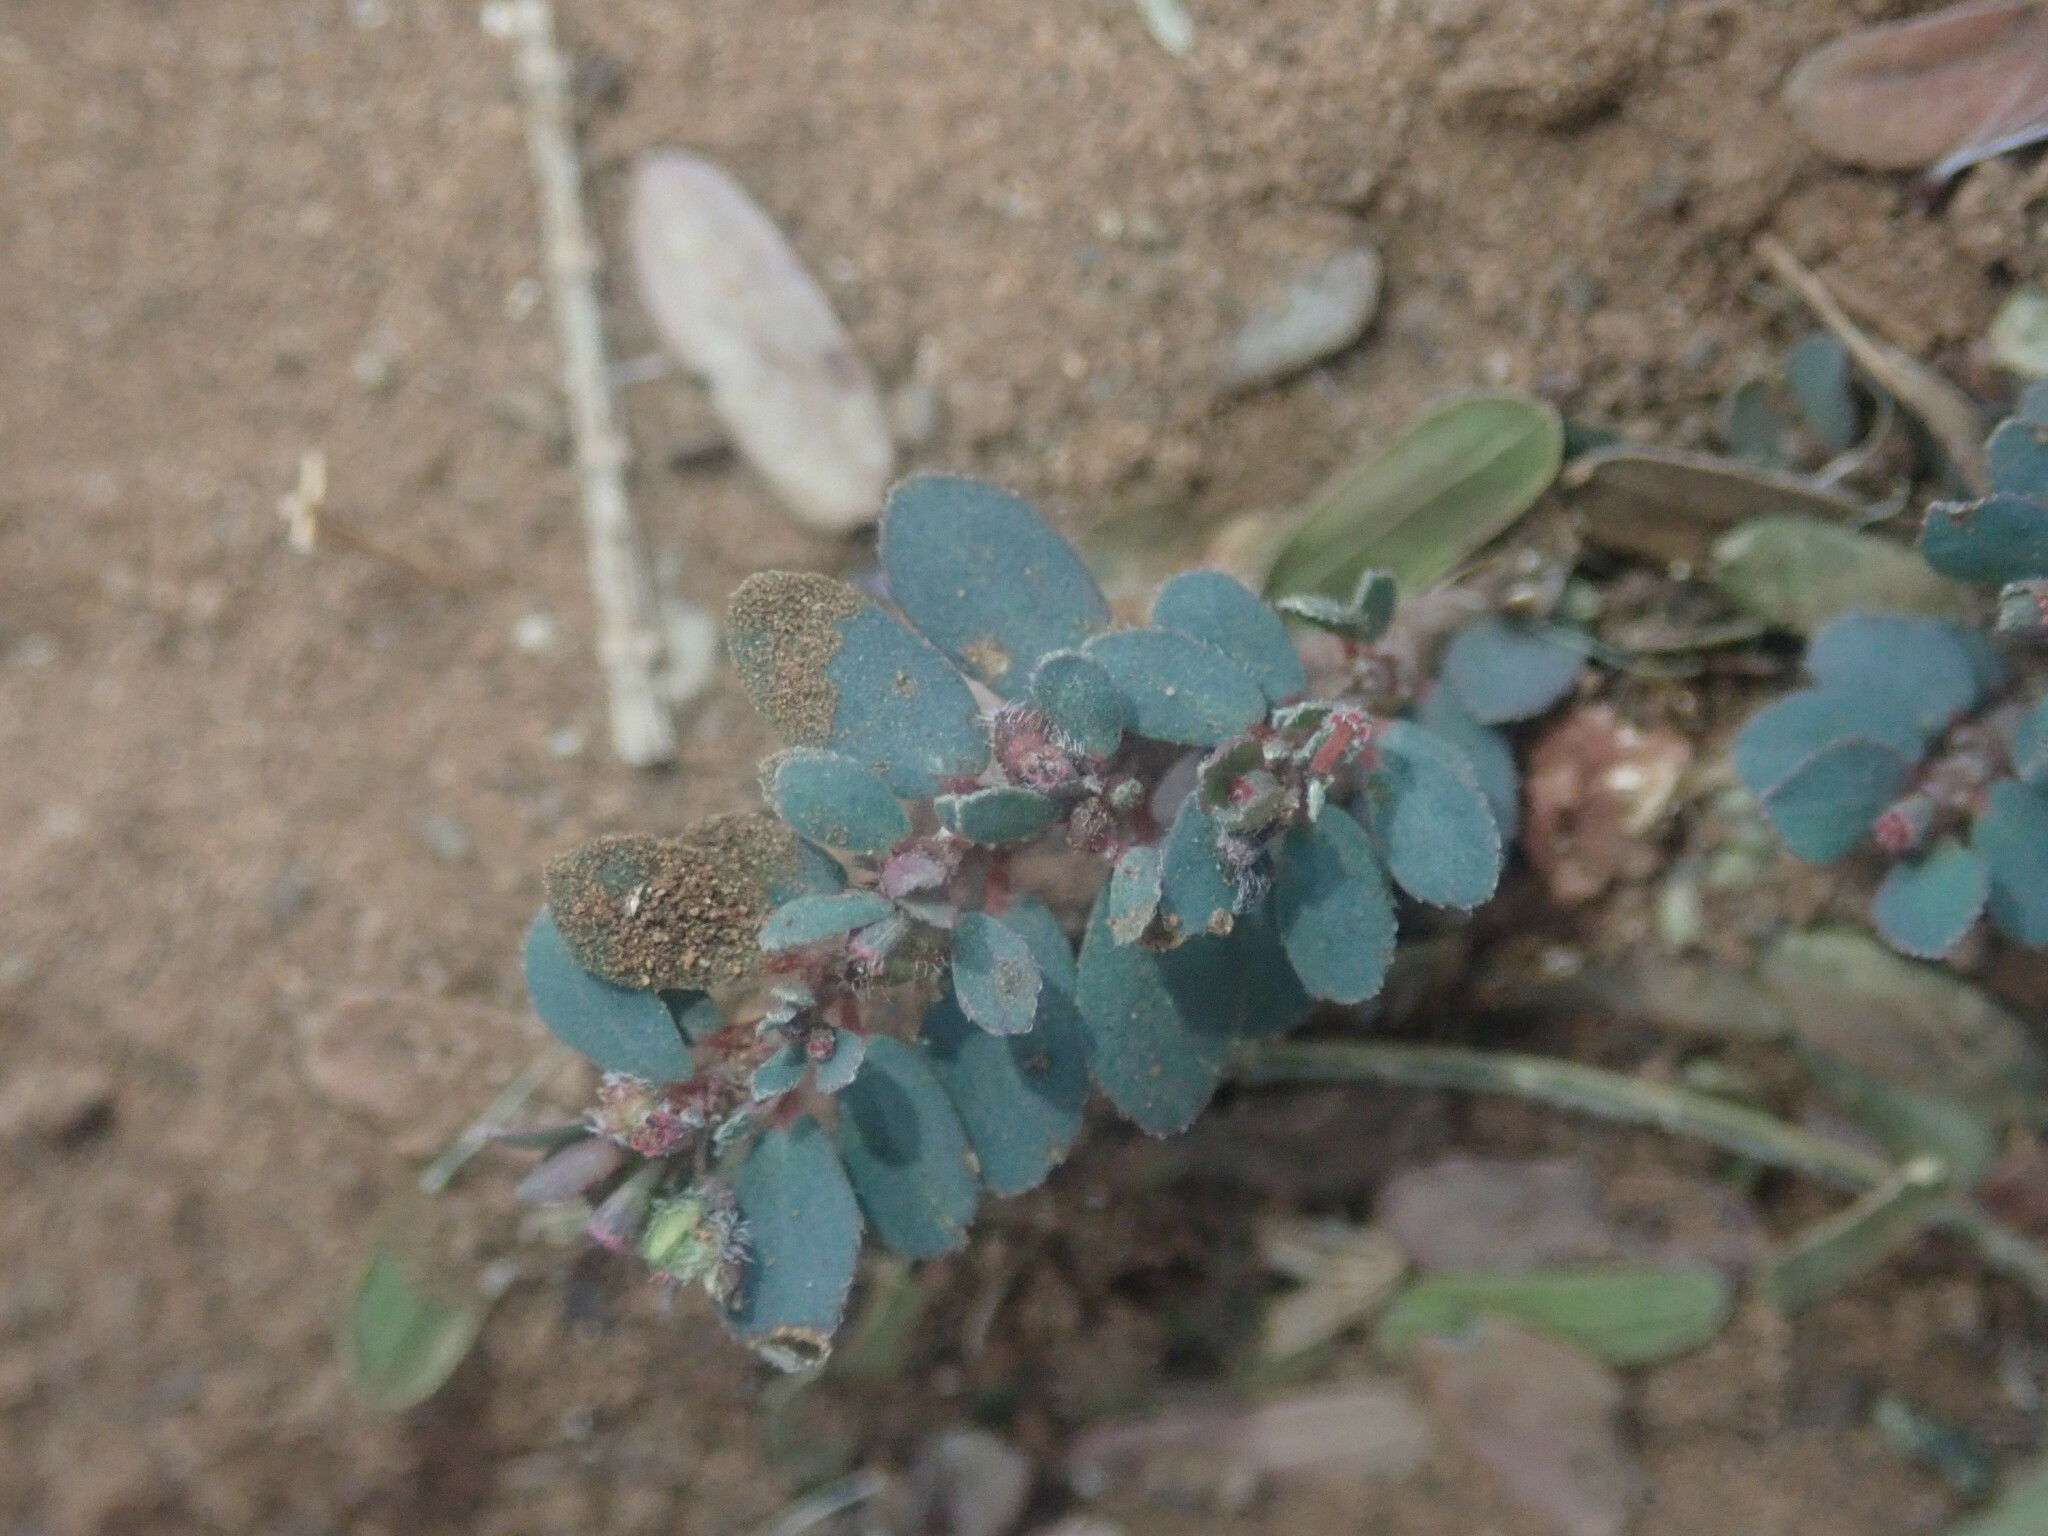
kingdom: Plantae
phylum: Tracheophyta
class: Magnoliopsida
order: Malpighiales
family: Euphorbiaceae
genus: Euphorbia
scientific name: Euphorbia prostrata
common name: Prostrate sandmat
